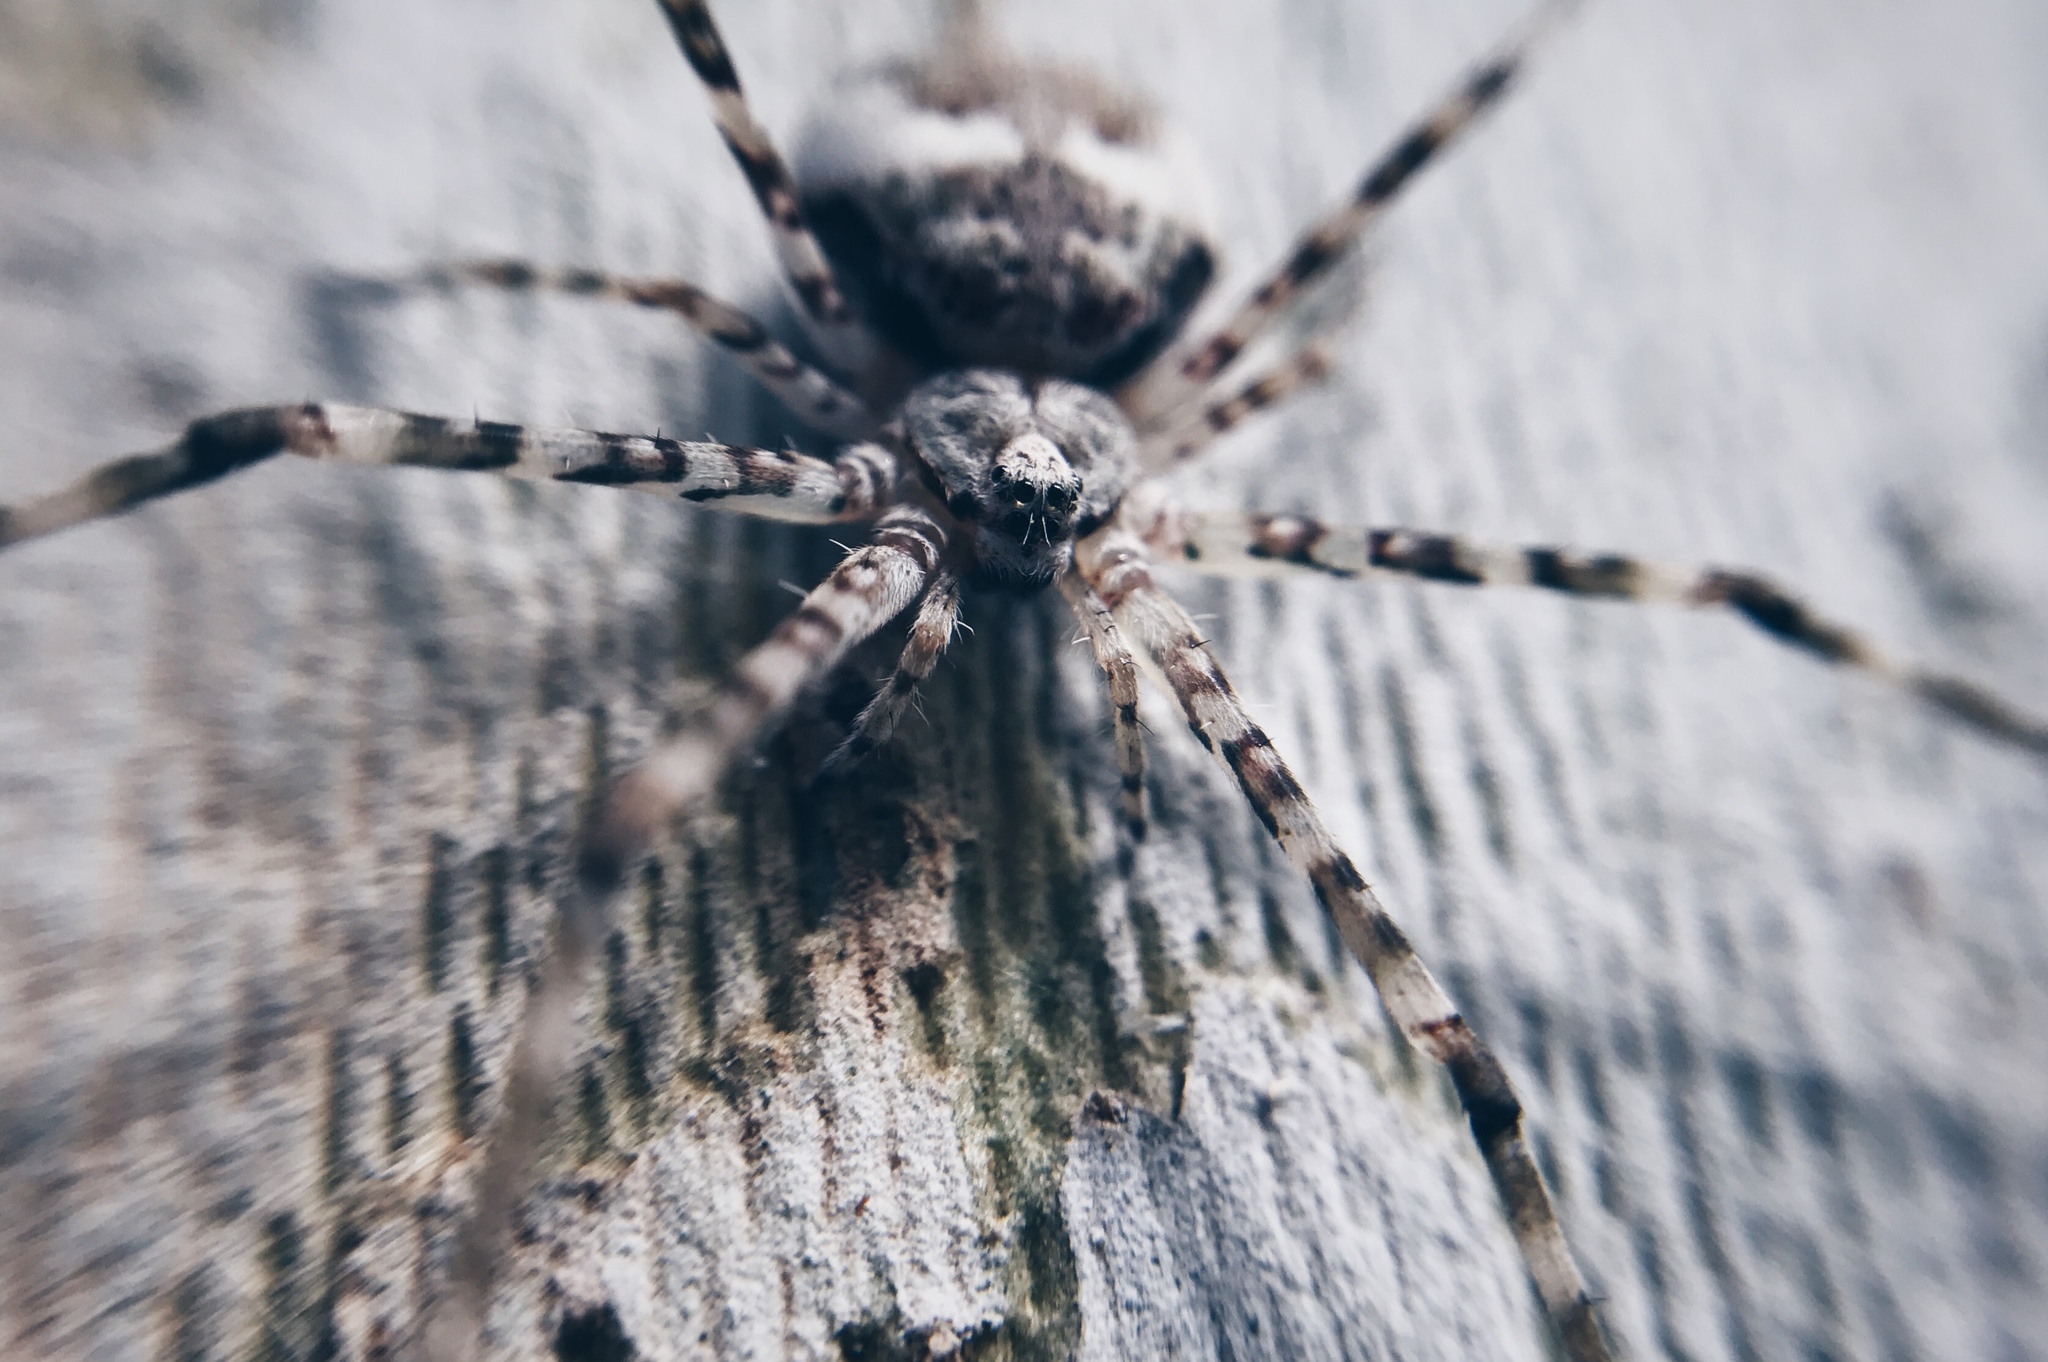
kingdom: Animalia
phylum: Arthropoda
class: Arachnida
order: Araneae
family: Hersiliidae
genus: Neotama
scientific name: Neotama mexicana
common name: Tree trunk spiders
